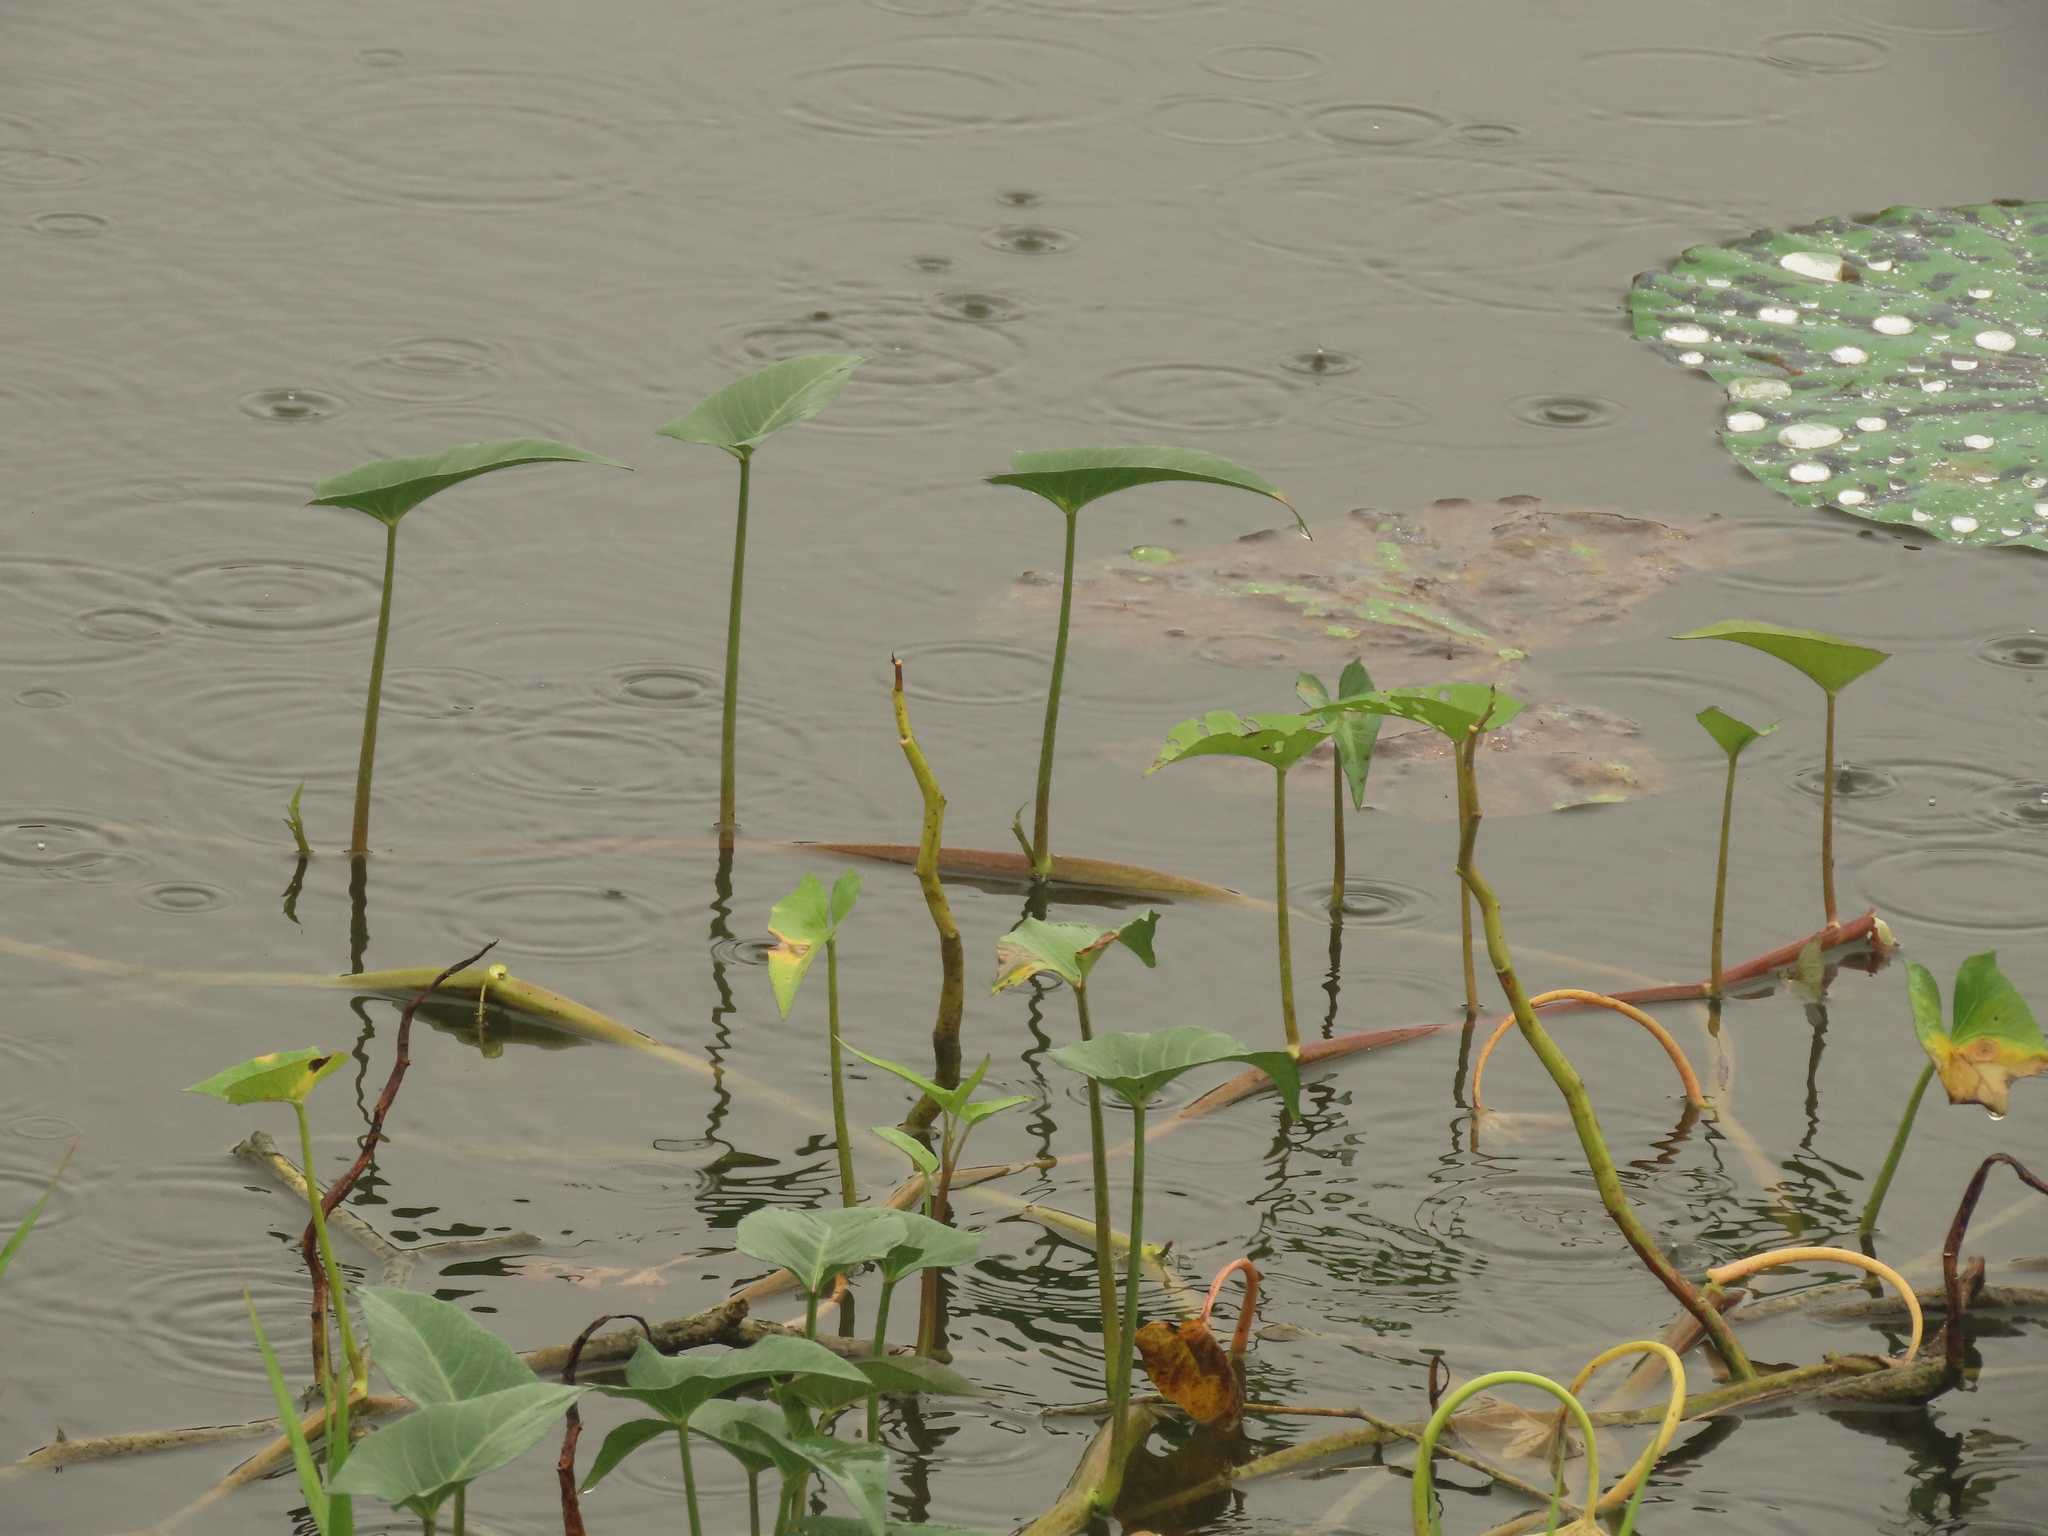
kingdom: Plantae
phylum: Tracheophyta
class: Magnoliopsida
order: Solanales
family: Convolvulaceae
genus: Ipomoea
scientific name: Ipomoea aquatica
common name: Swamp morning-glory
